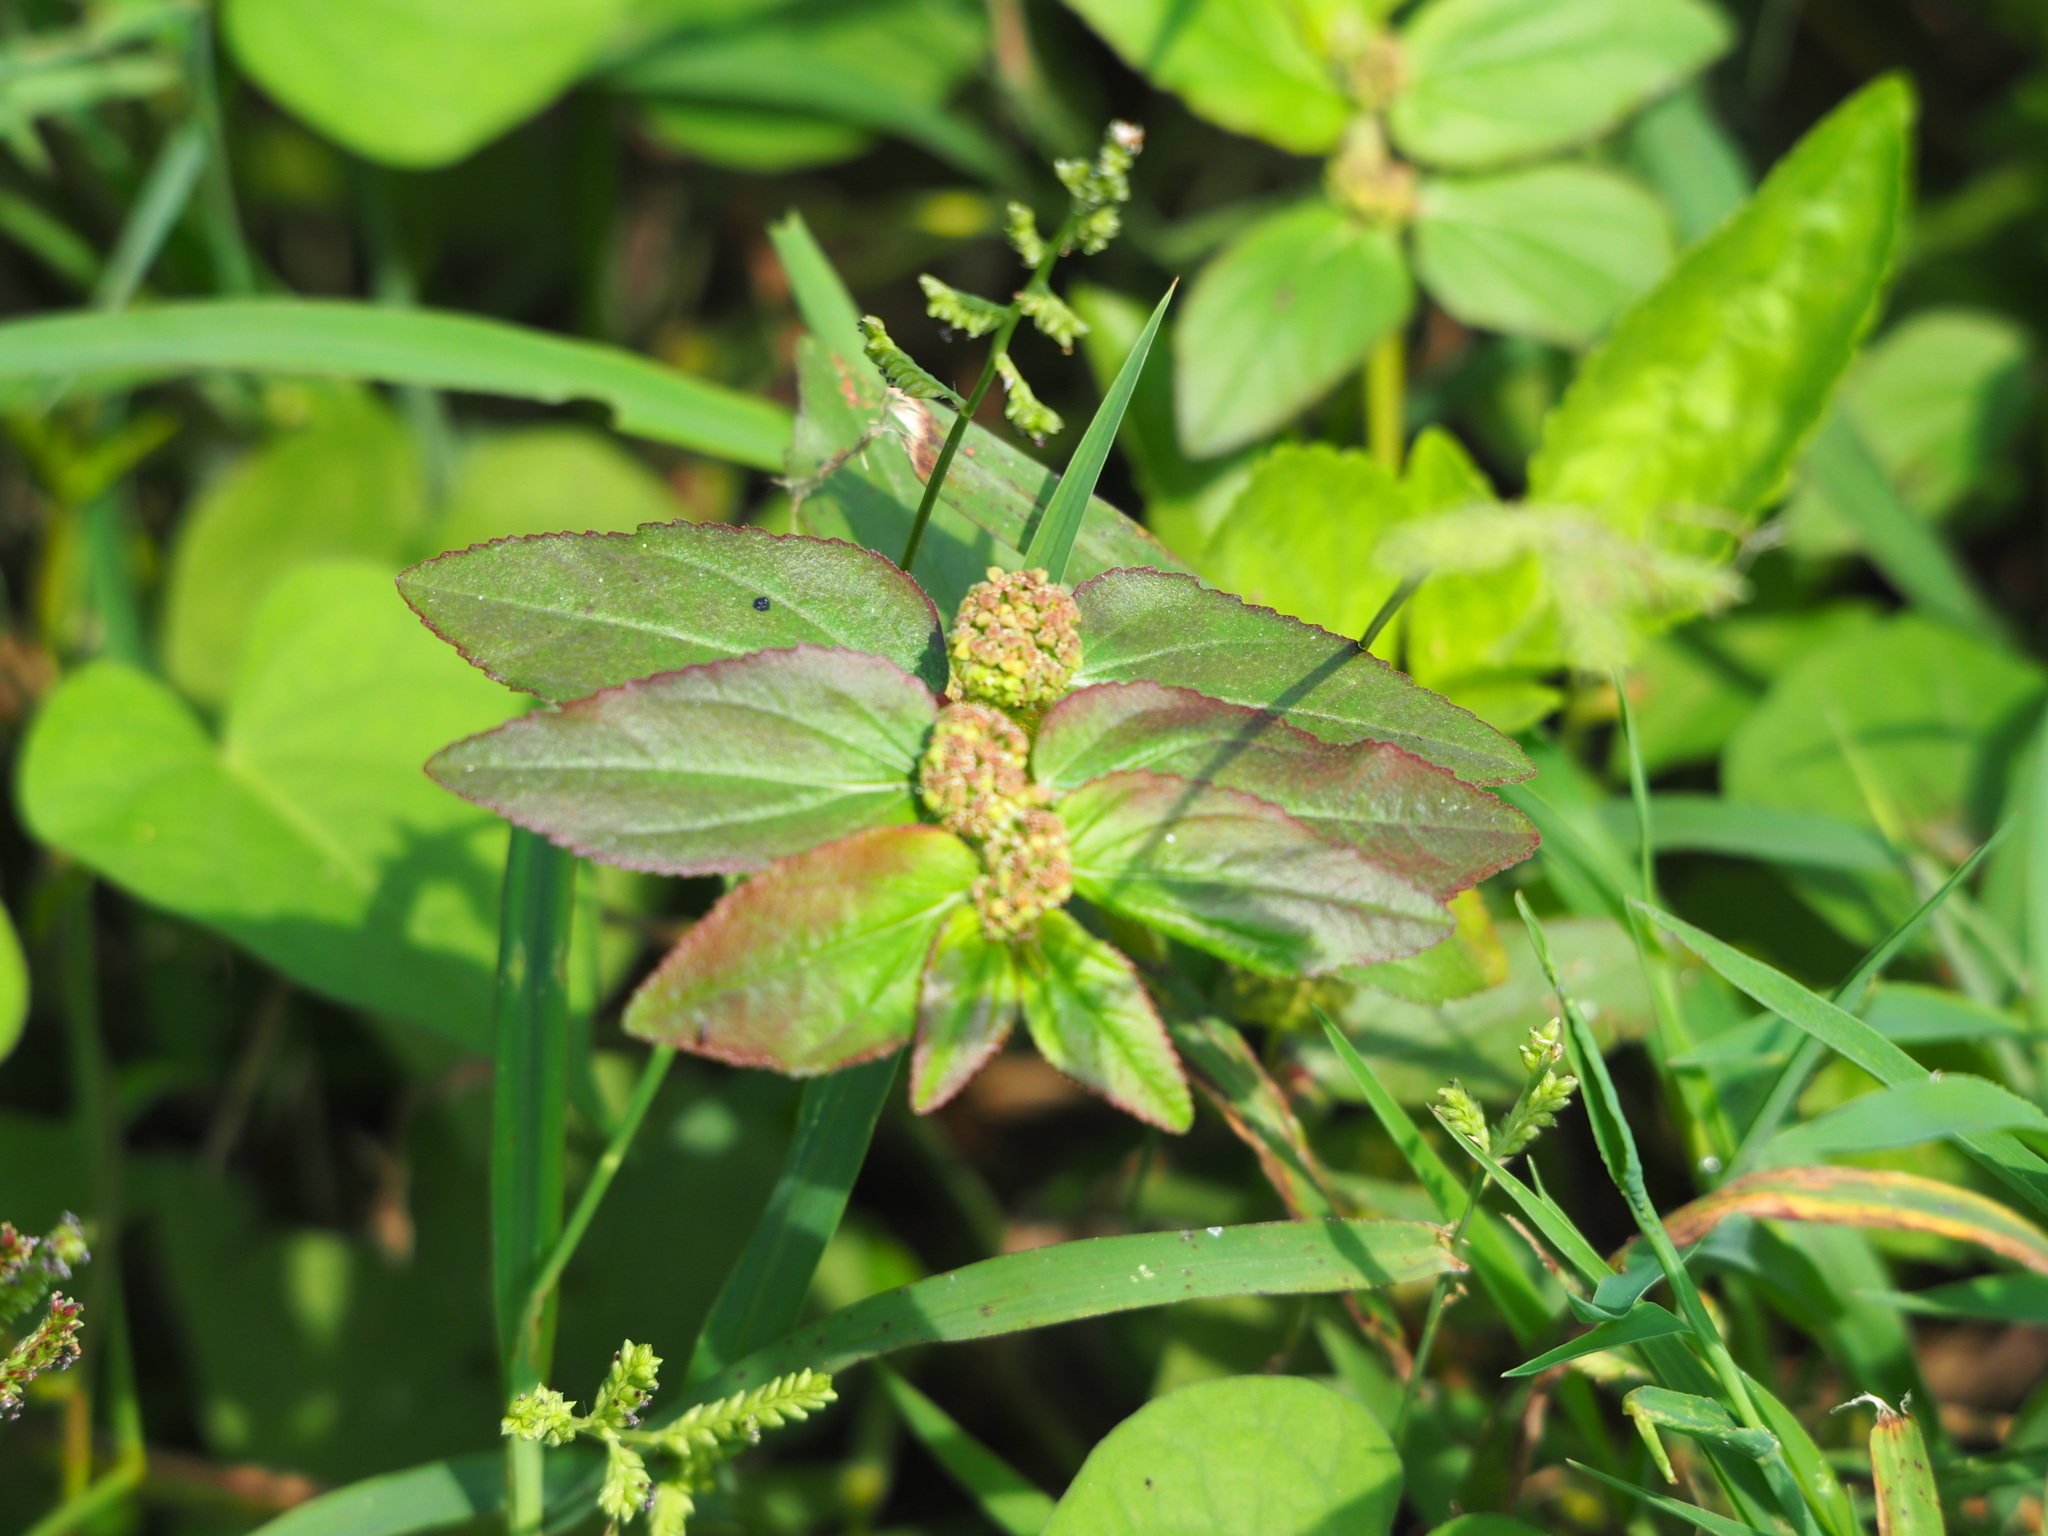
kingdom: Plantae
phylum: Tracheophyta
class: Magnoliopsida
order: Malpighiales
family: Euphorbiaceae
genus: Euphorbia
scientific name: Euphorbia hirta
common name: Pillpod sandmat
